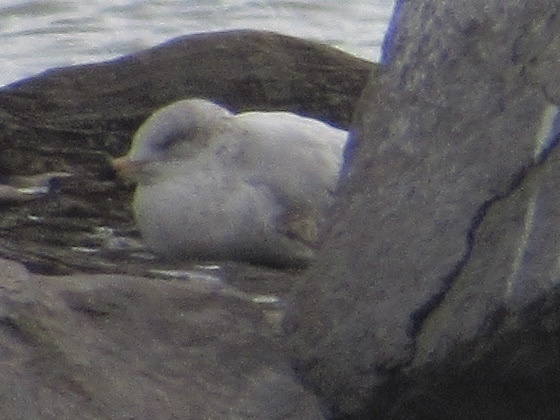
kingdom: Animalia
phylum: Chordata
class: Aves
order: Charadriiformes
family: Laridae
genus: Larus
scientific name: Larus delawarensis
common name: Ring-billed gull
